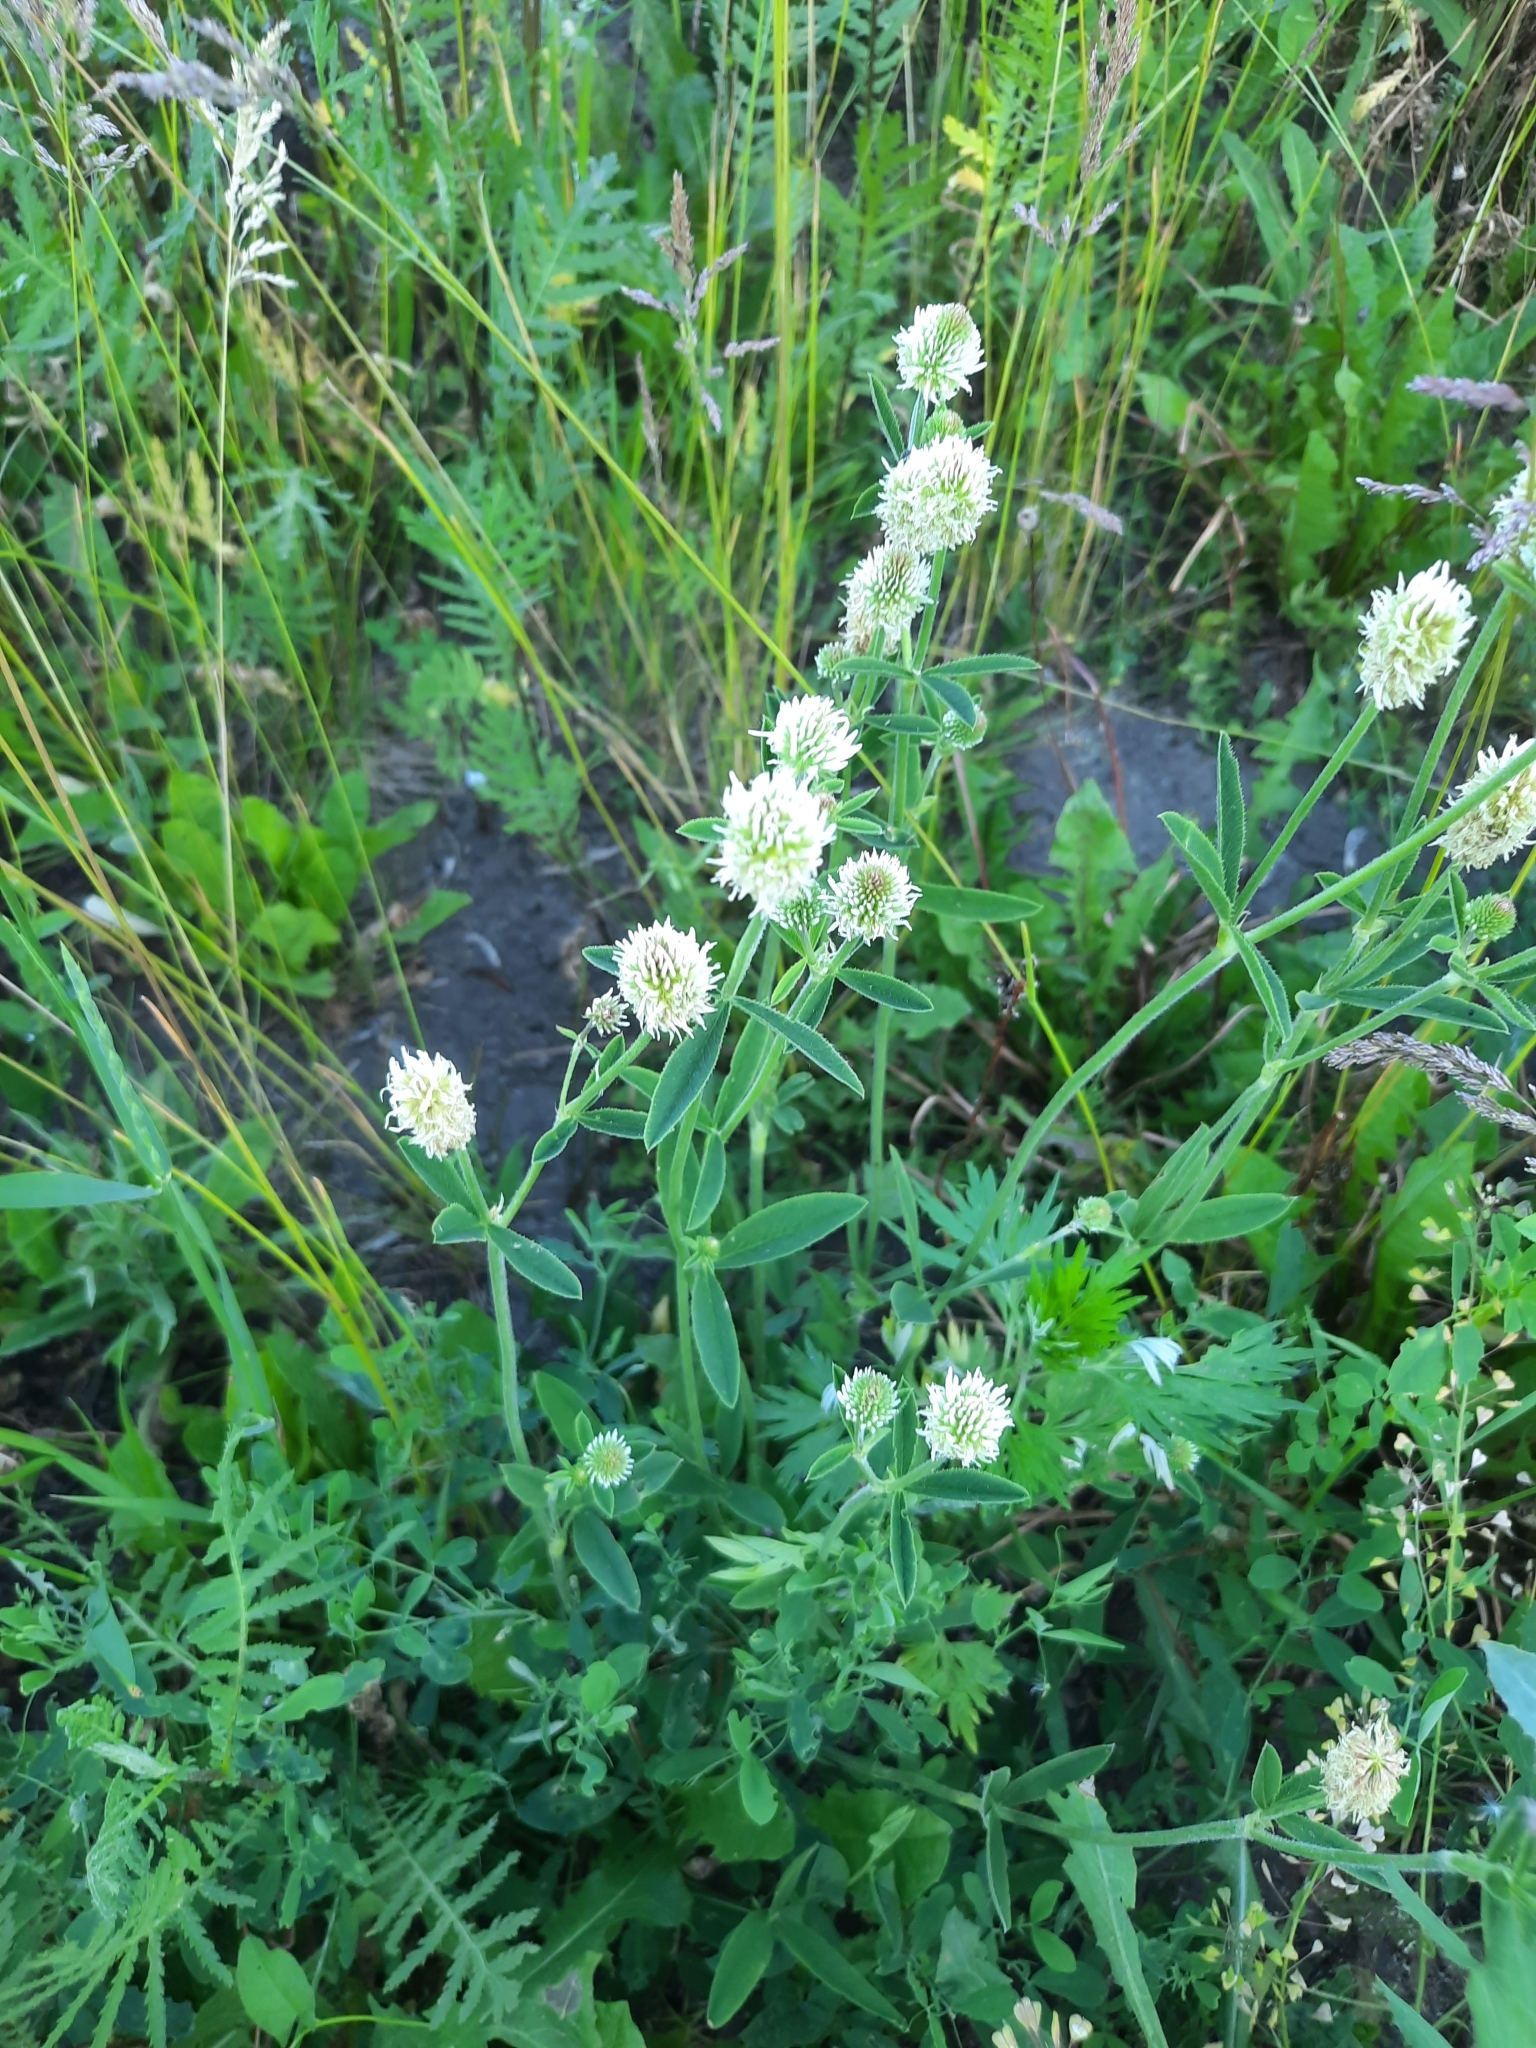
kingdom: Plantae
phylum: Tracheophyta
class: Magnoliopsida
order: Fabales
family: Fabaceae
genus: Trifolium
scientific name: Trifolium montanum
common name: Mountain clover
